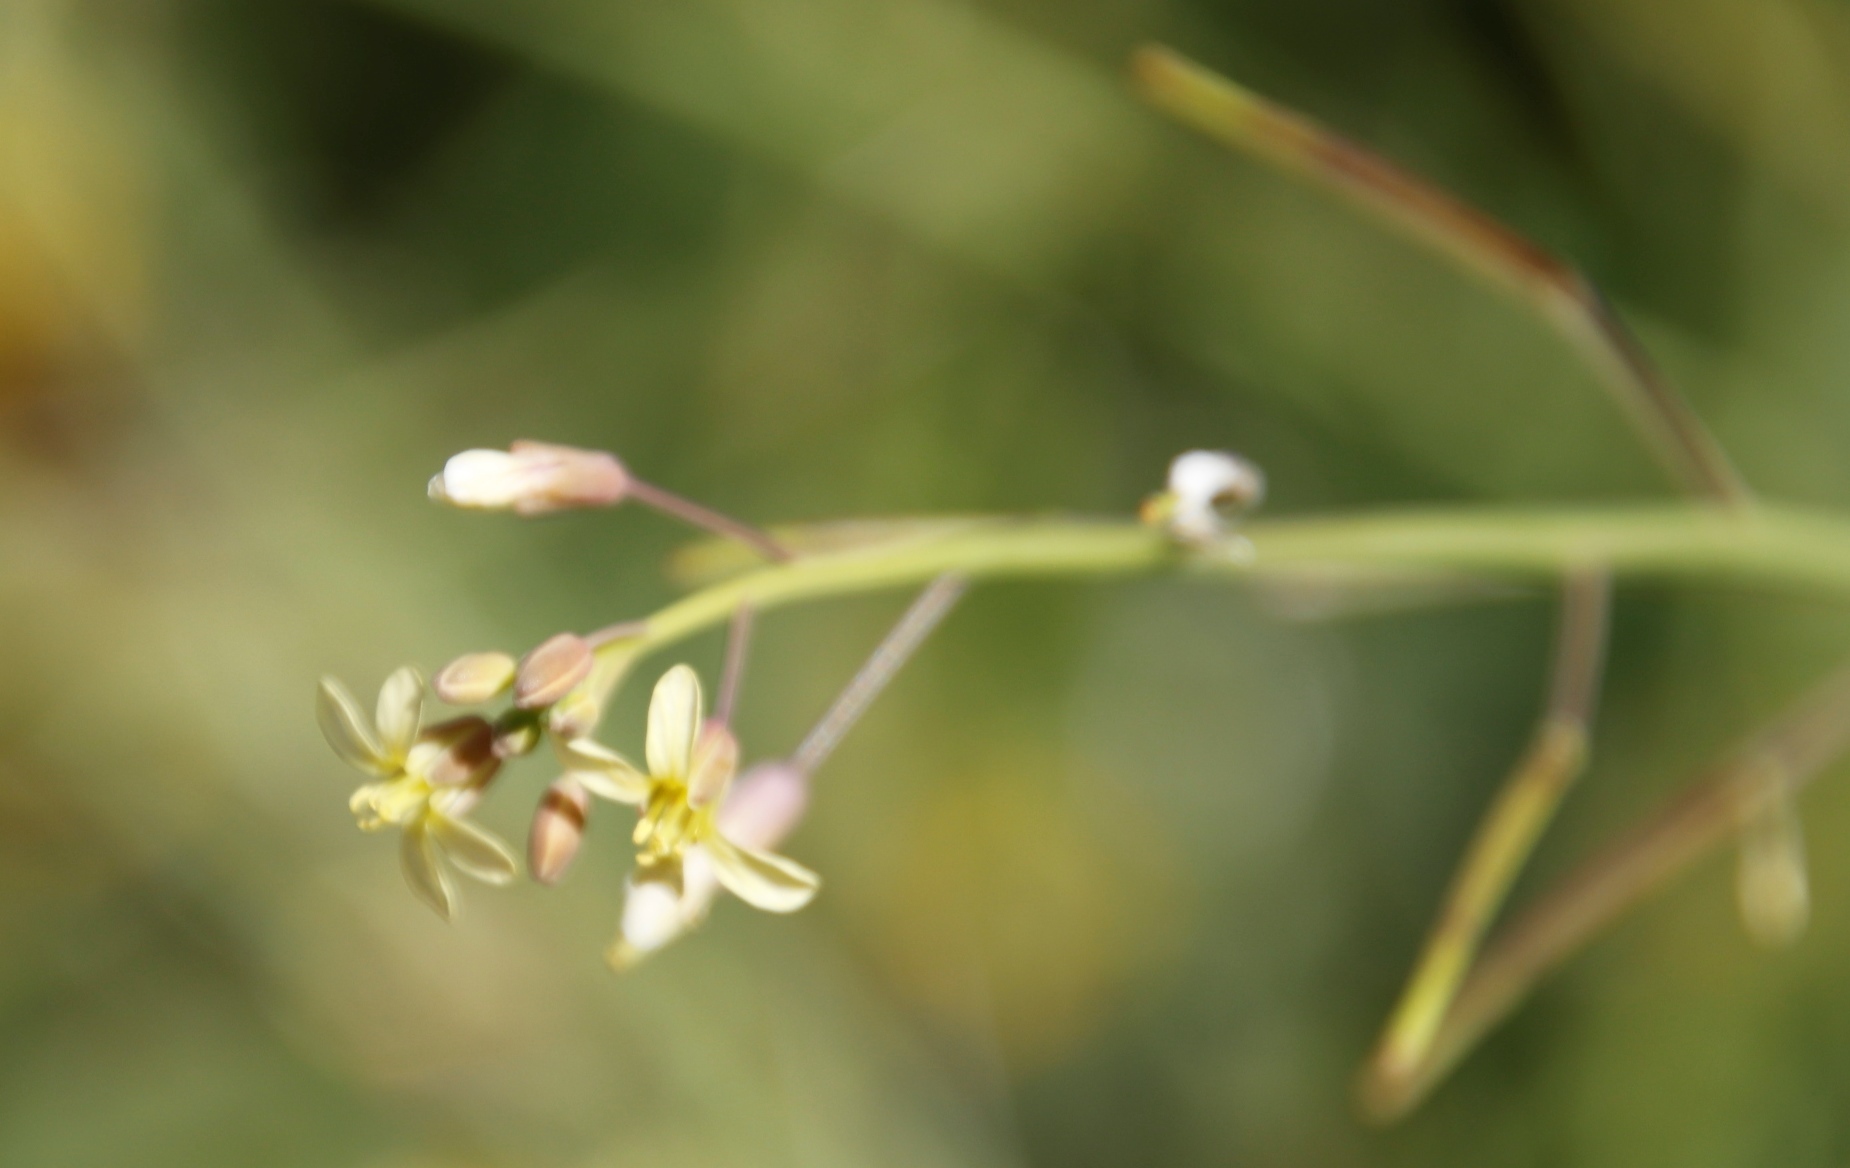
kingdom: Plantae
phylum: Tracheophyta
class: Magnoliopsida
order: Brassicales
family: Brassicaceae
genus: Sisymbrium
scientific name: Sisymbrium irio
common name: London rocket
